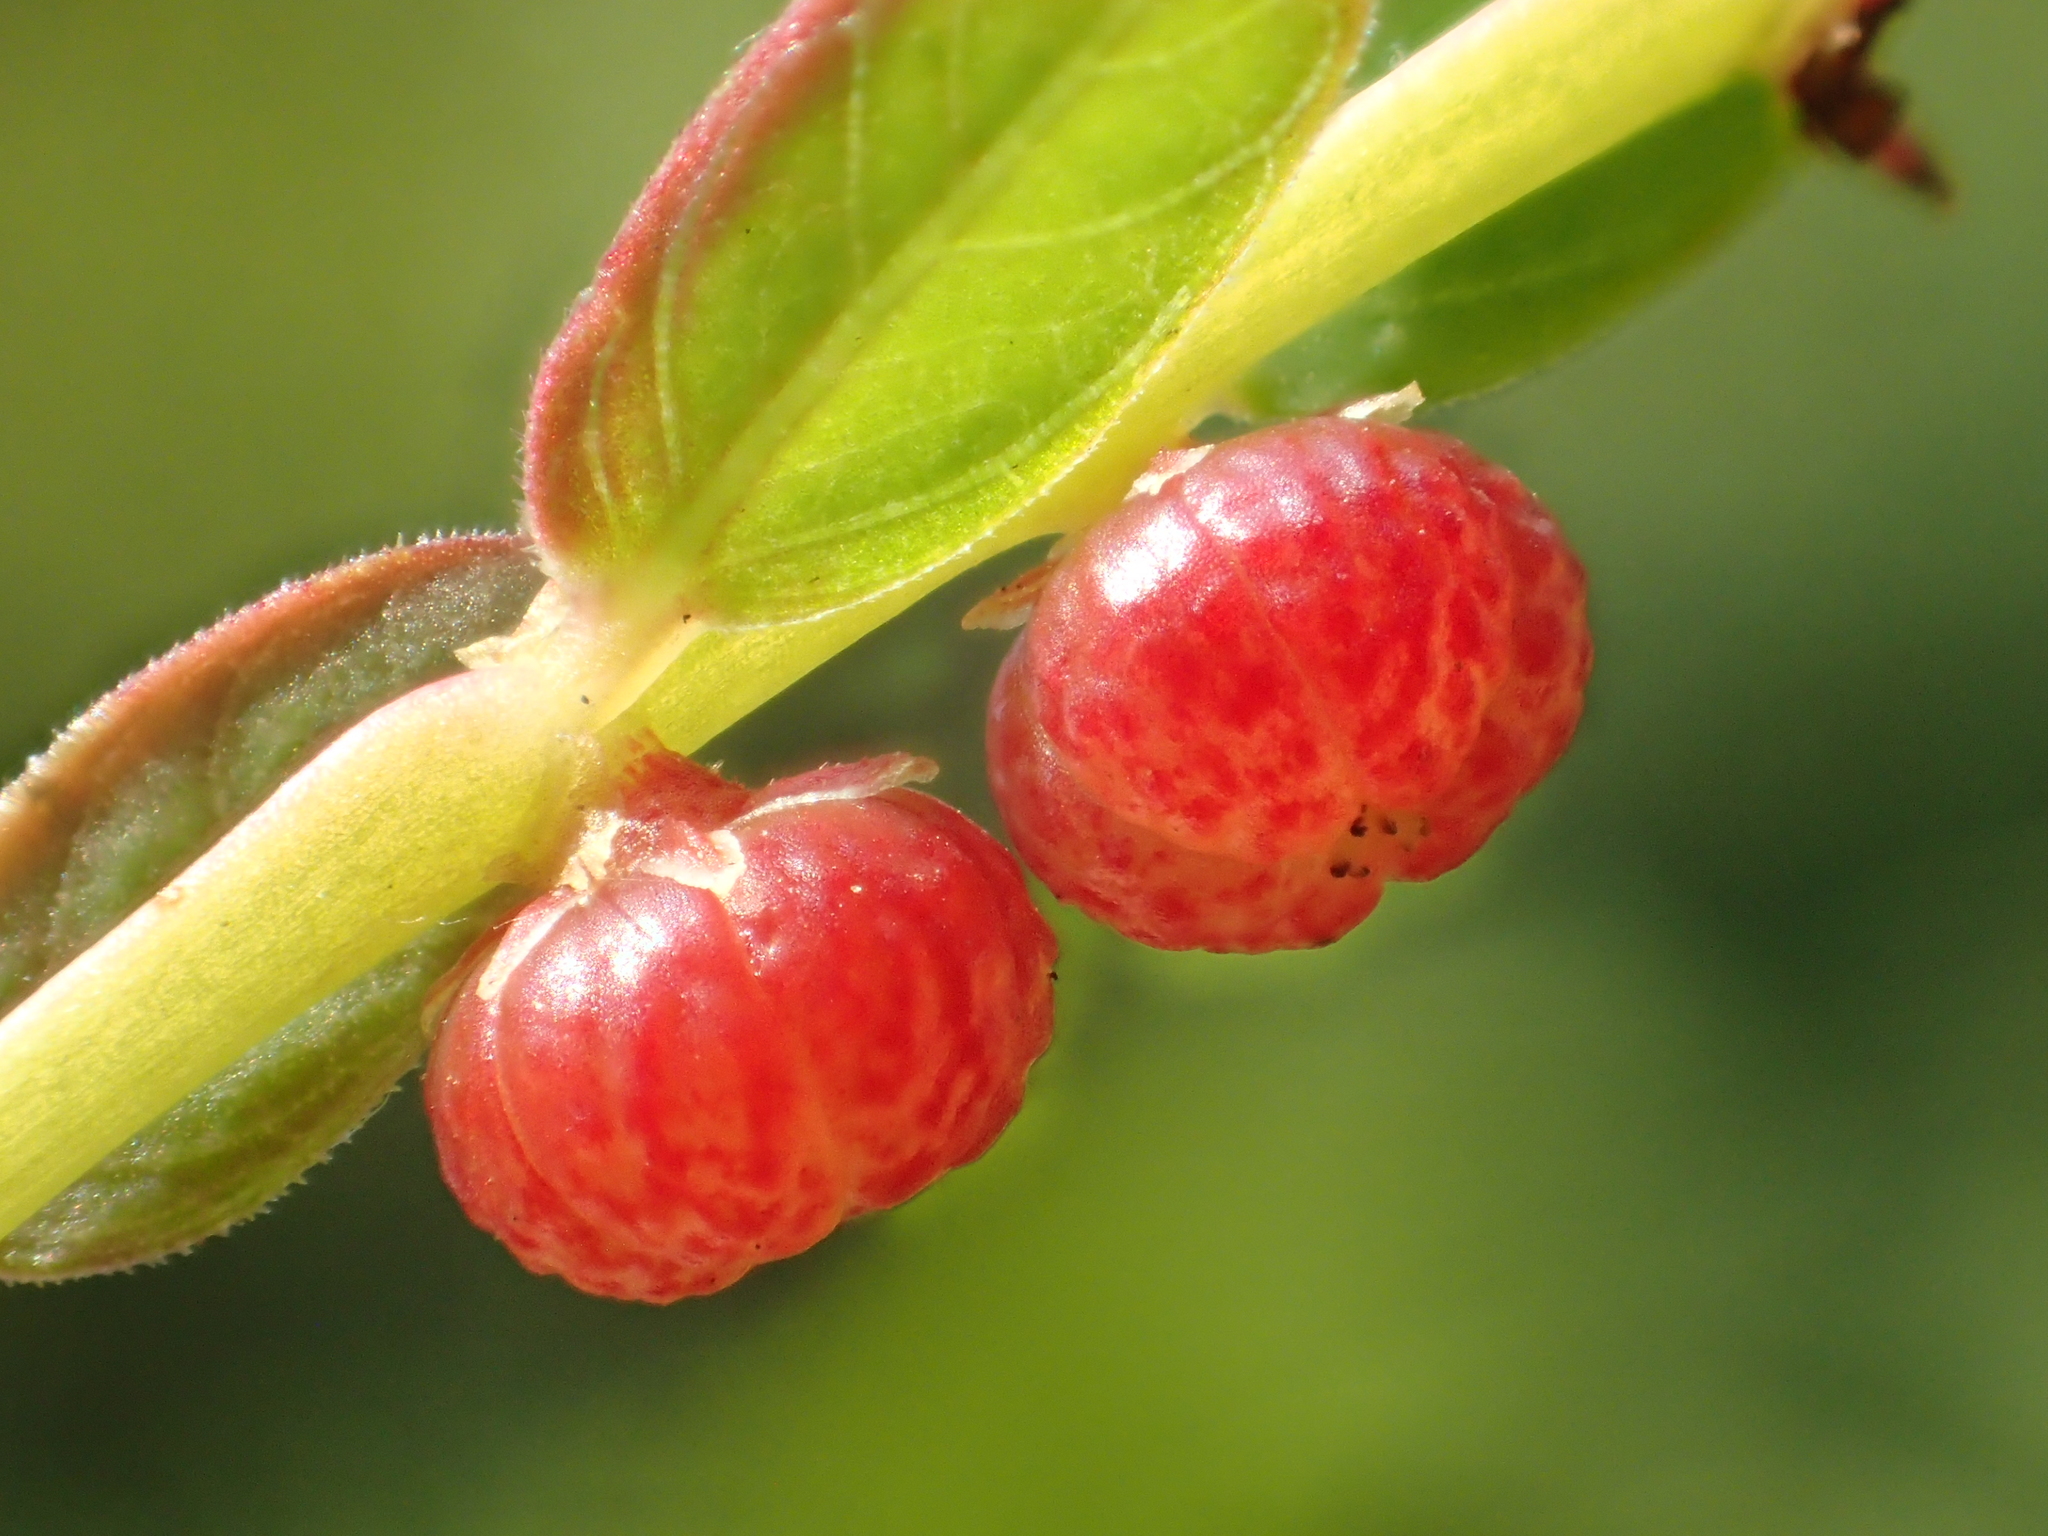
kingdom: Plantae
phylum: Tracheophyta
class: Magnoliopsida
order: Malpighiales
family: Phyllanthaceae
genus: Phyllanthus
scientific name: Phyllanthus urinaria
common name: Chamber bitter
